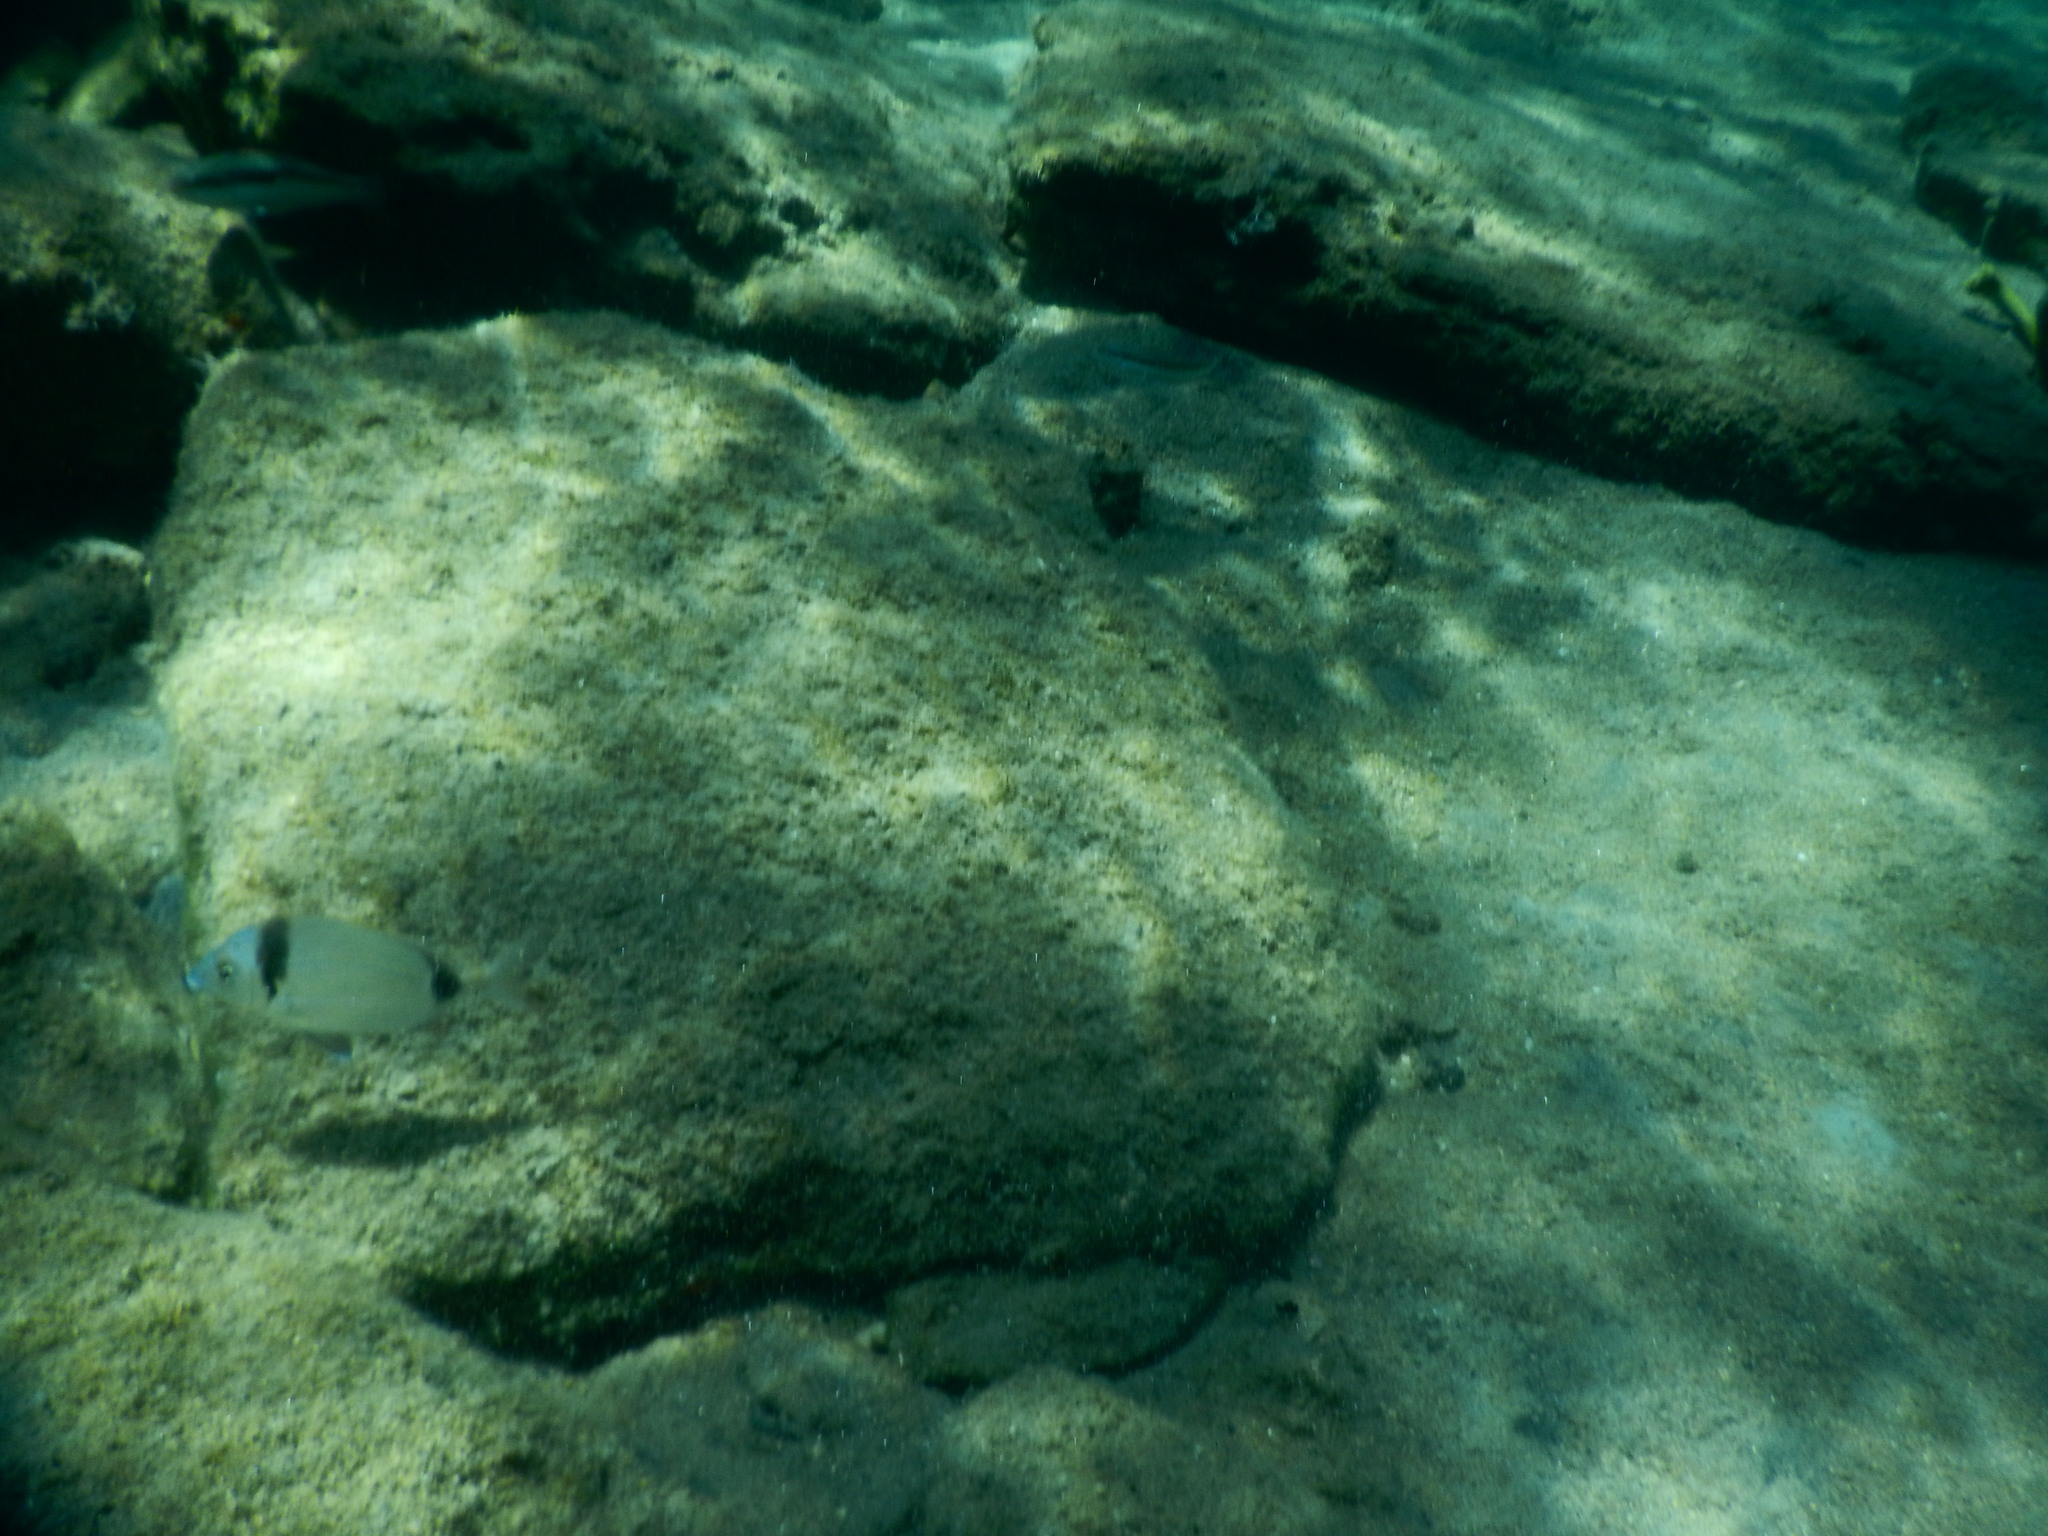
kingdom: Animalia
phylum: Chordata
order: Perciformes
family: Sparidae
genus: Diplodus
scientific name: Diplodus vulgaris
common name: Common two-banded seabream
